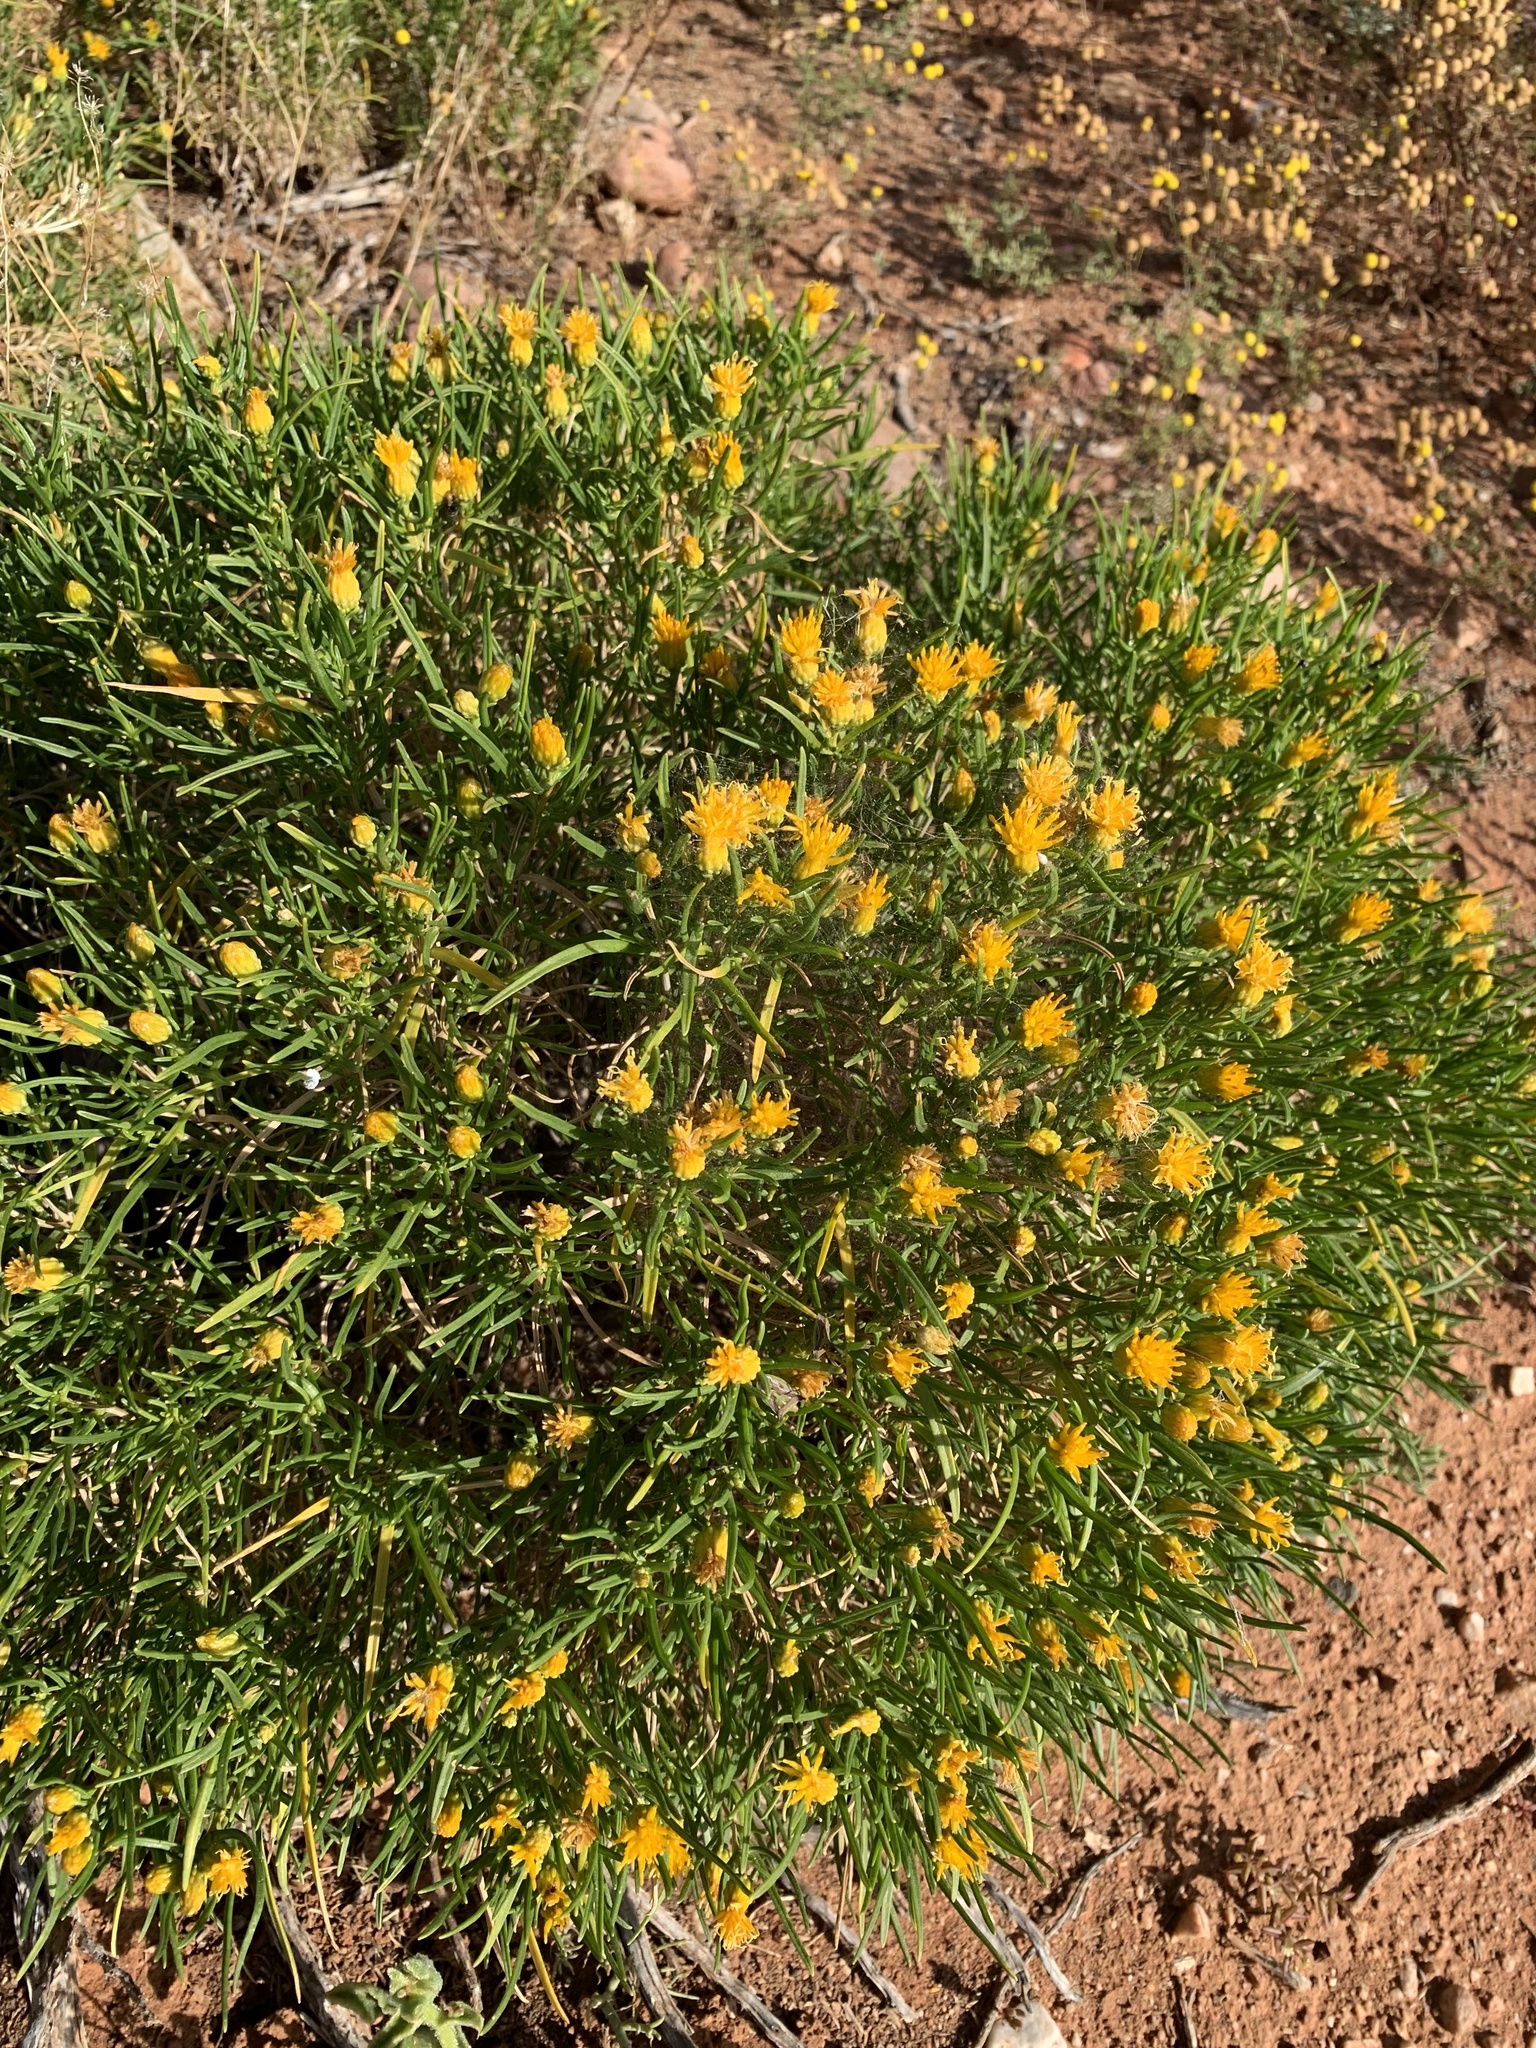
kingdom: Plantae
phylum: Tracheophyta
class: Magnoliopsida
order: Asterales
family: Asteraceae
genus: Pteronia
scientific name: Pteronia pallens
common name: Scholtzbush
